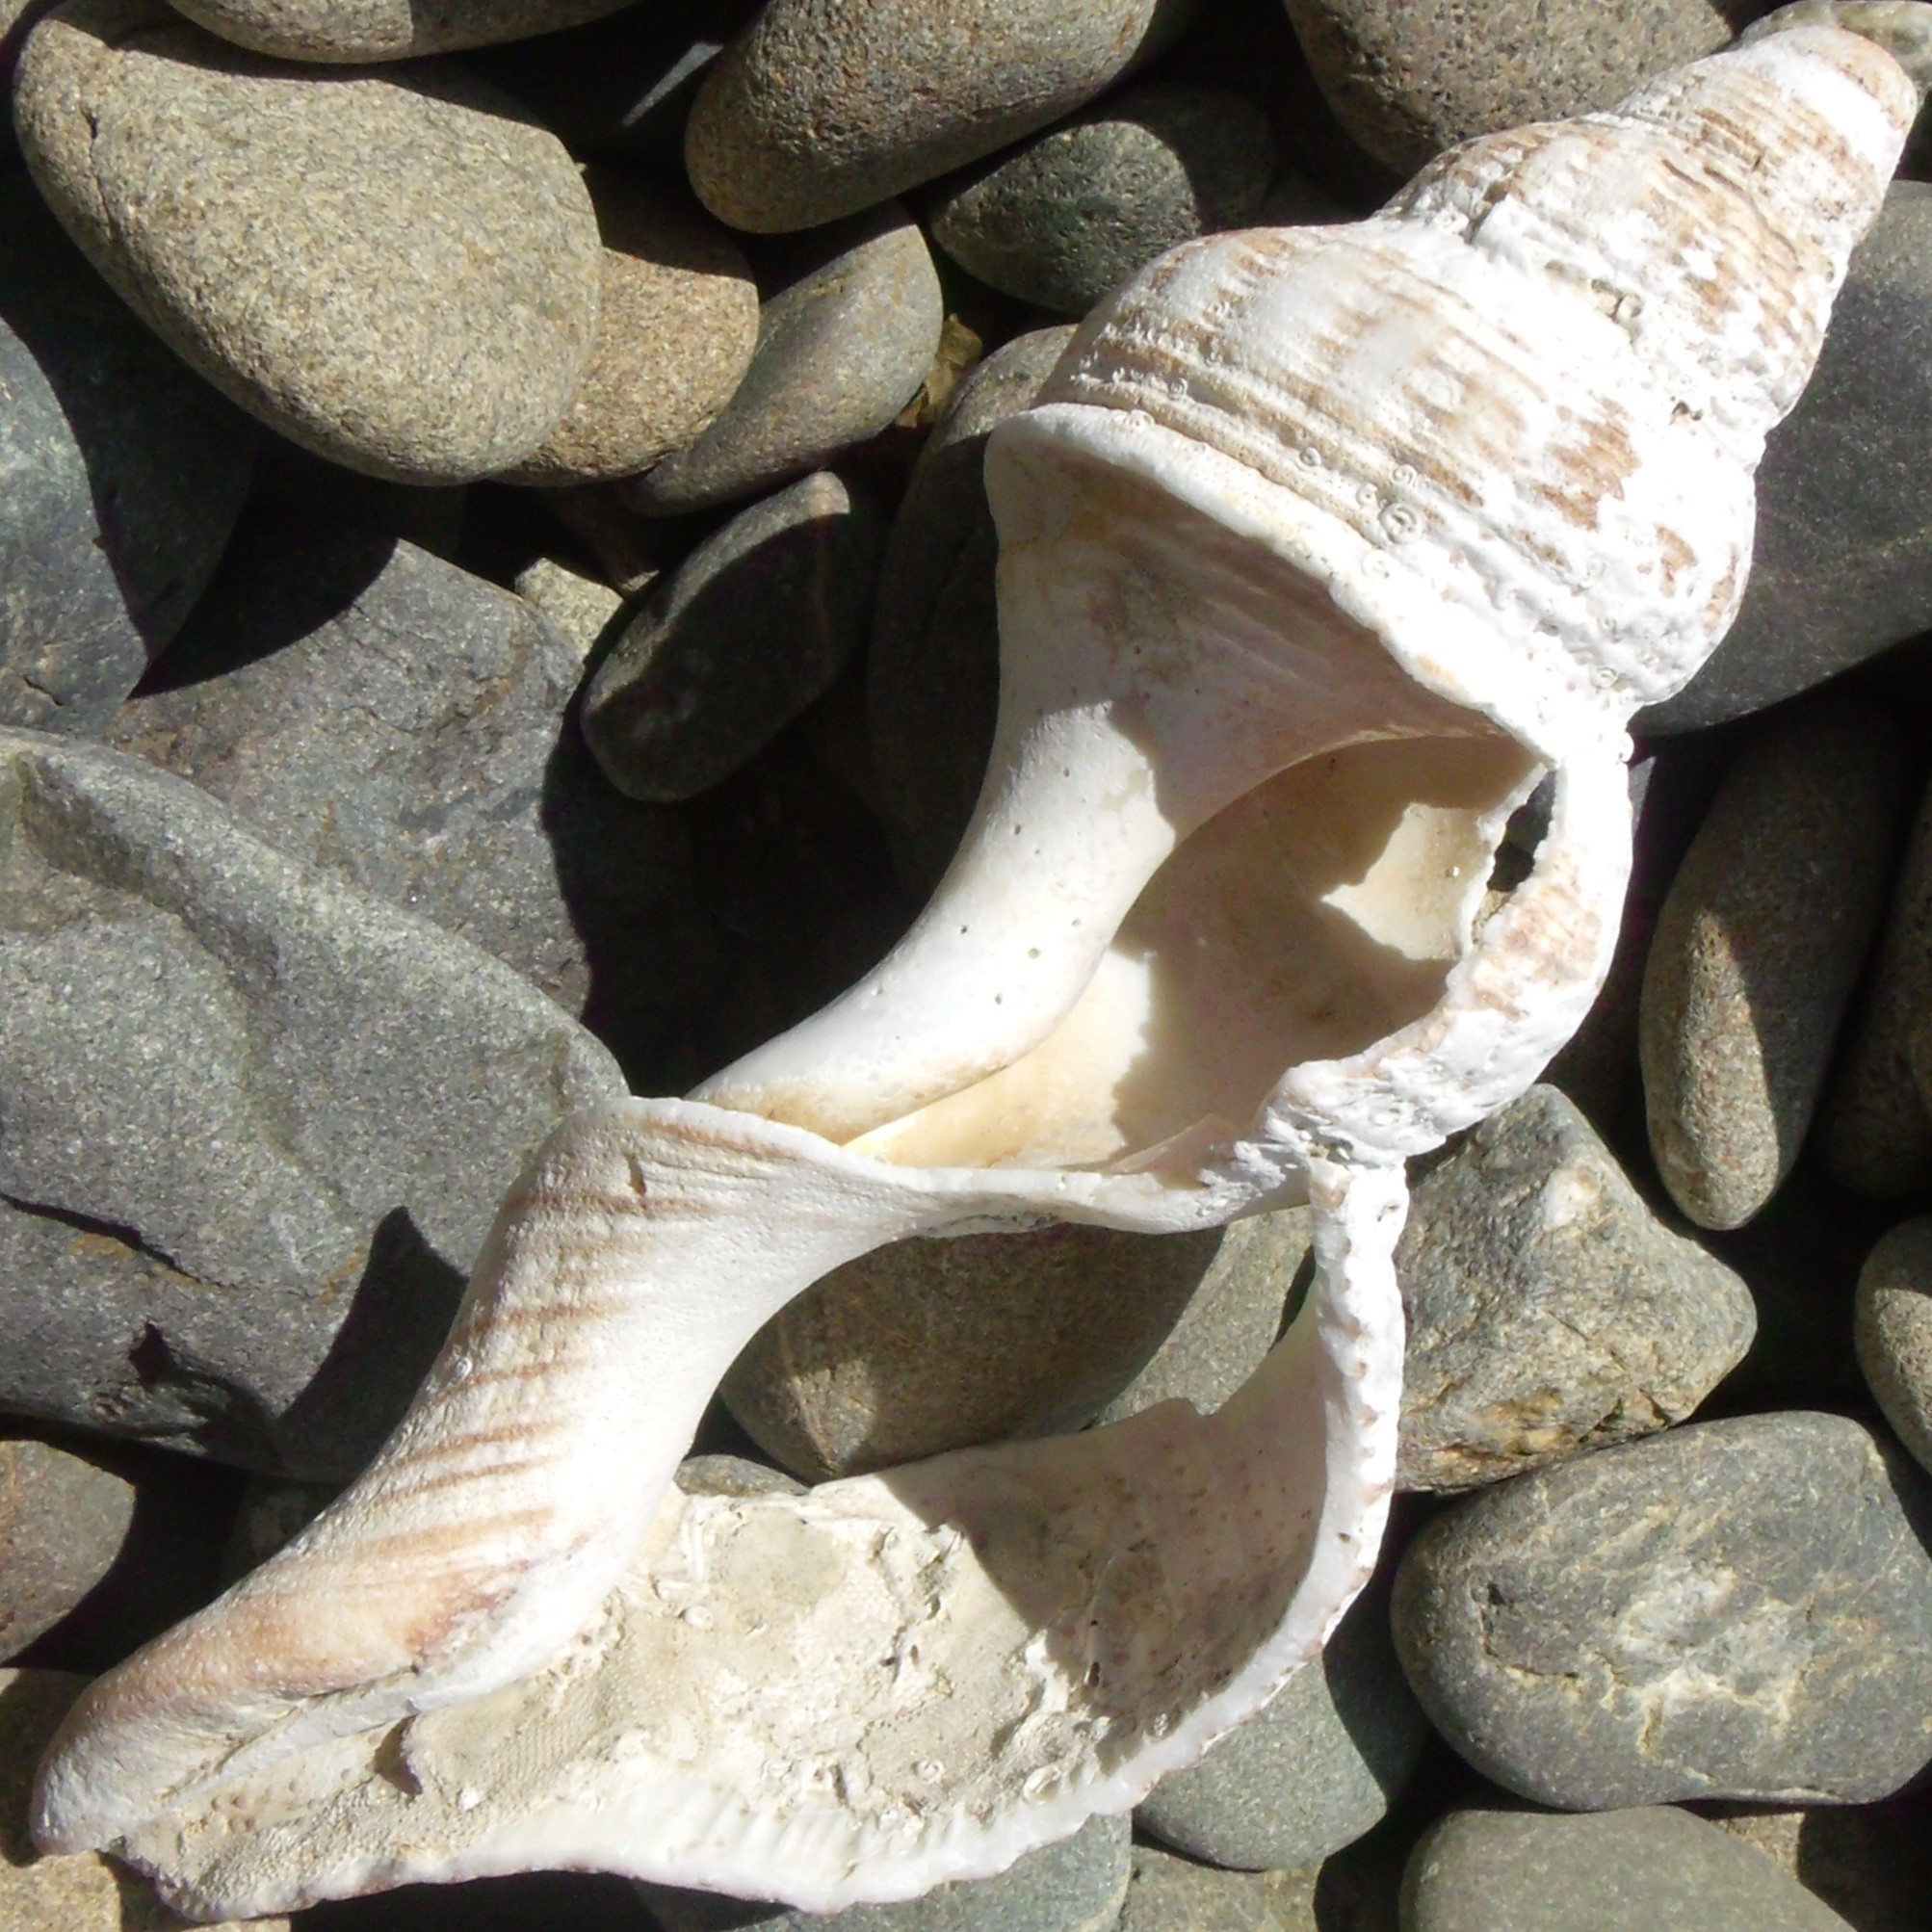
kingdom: Animalia
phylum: Mollusca
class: Gastropoda
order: Neogastropoda
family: Austrosiphonidae
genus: Penion
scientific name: Penion sulcatus
